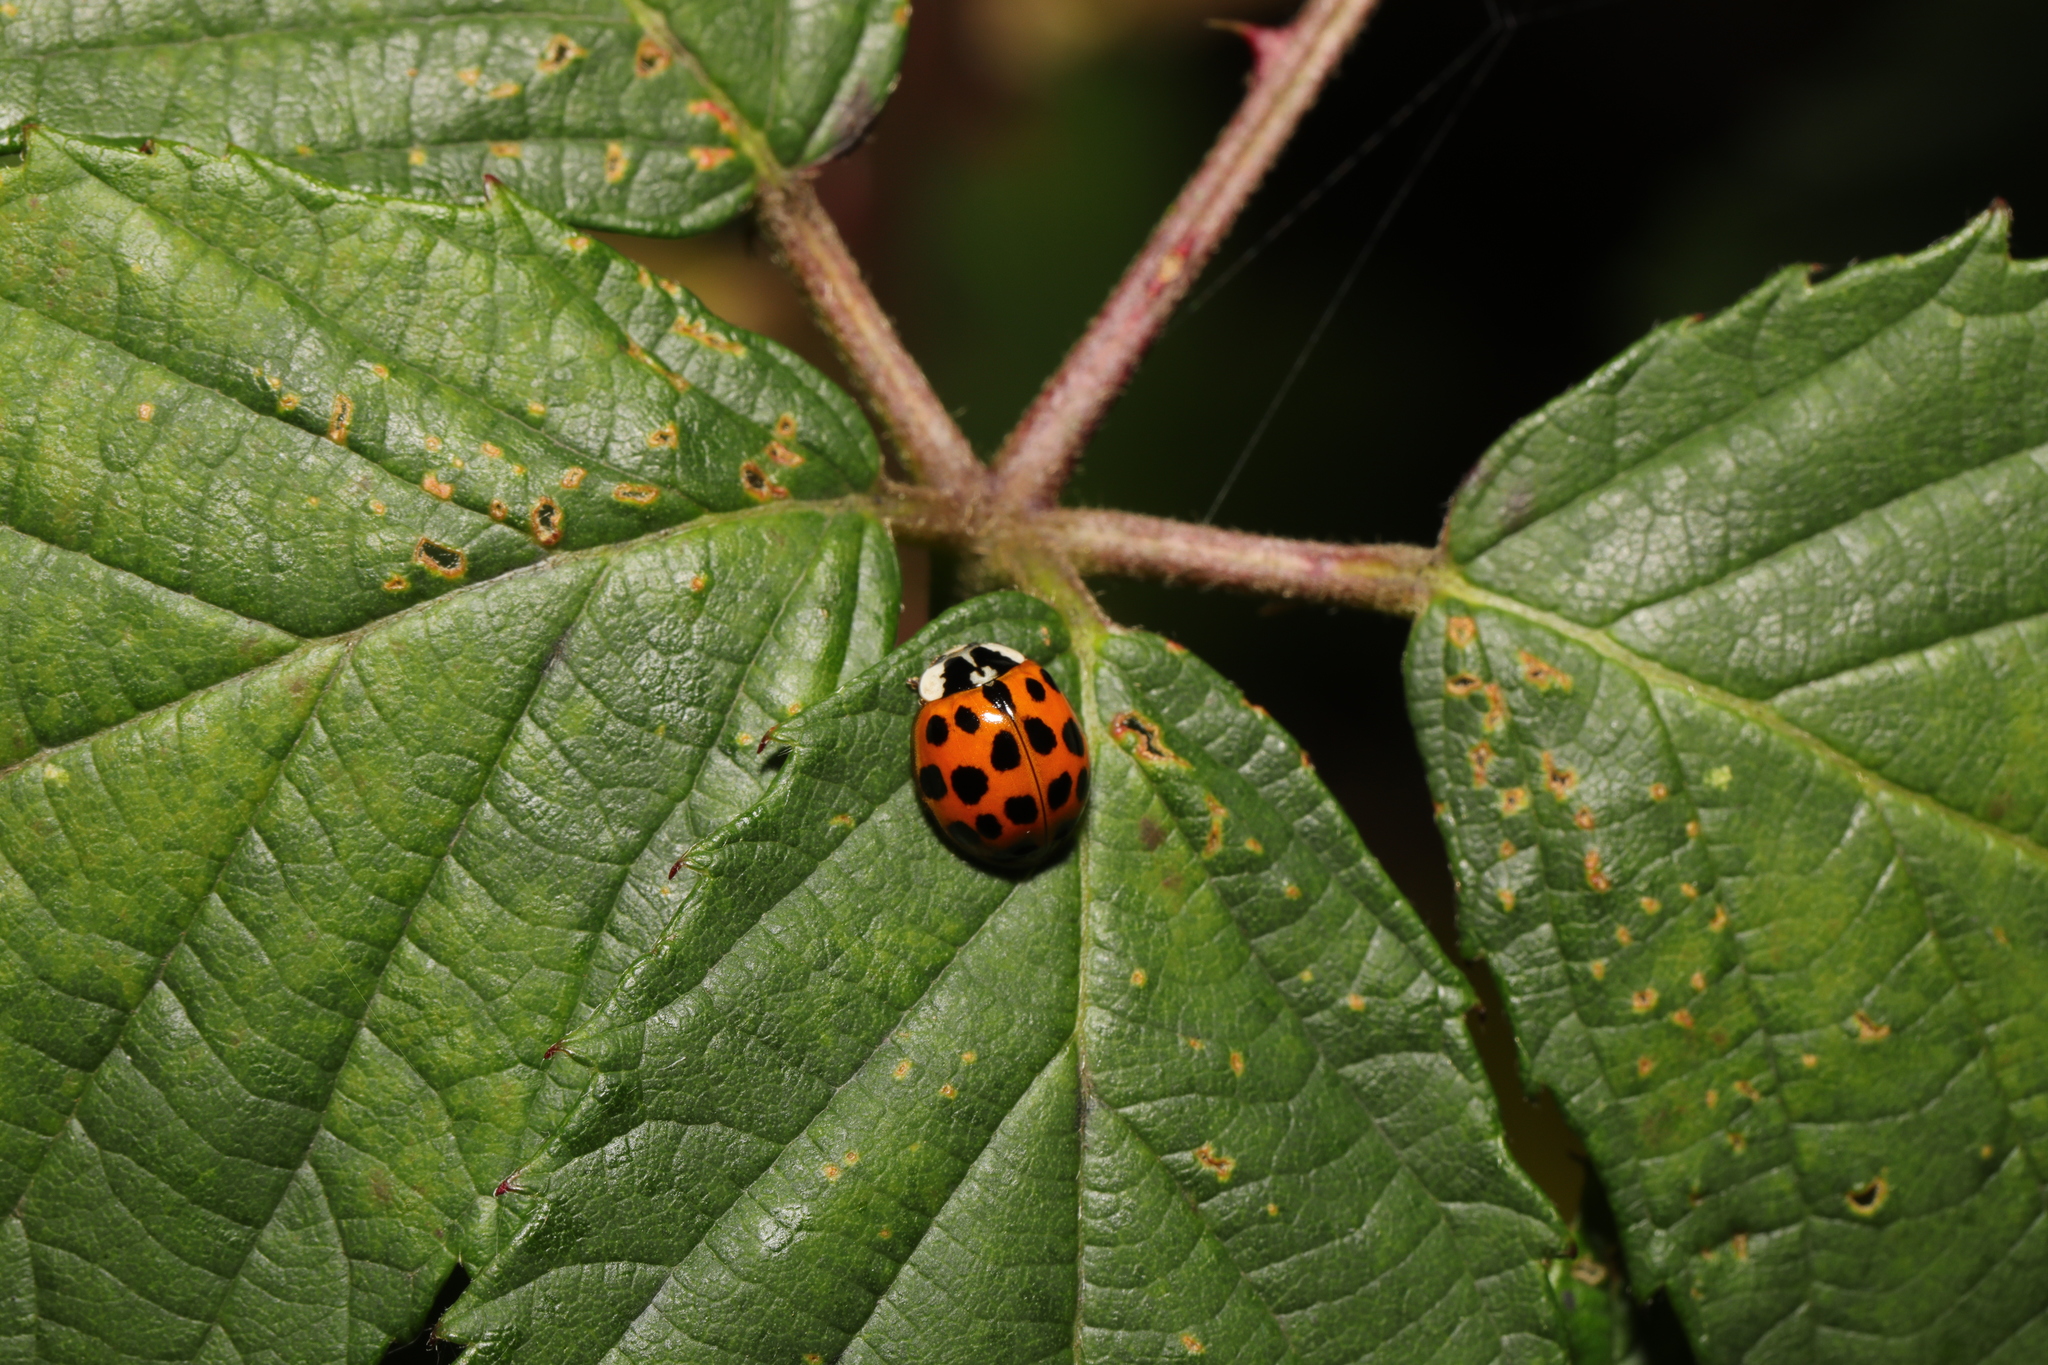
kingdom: Animalia
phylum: Arthropoda
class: Insecta
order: Coleoptera
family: Coccinellidae
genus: Harmonia
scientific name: Harmonia axyridis
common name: Harlequin ladybird
